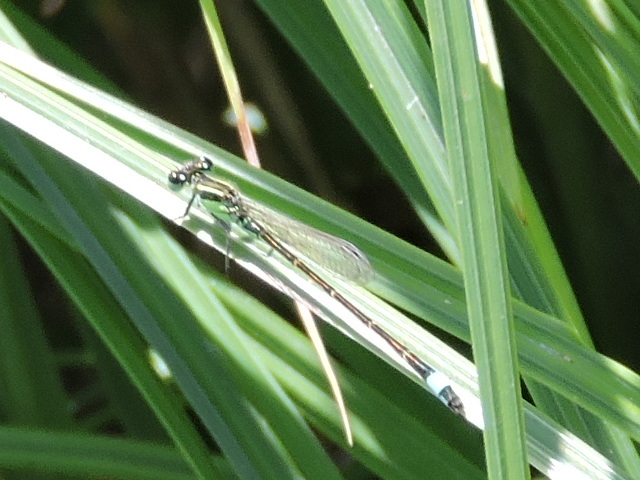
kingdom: Animalia
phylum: Arthropoda
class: Insecta
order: Odonata
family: Coenagrionidae
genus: Ischnura
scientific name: Ischnura ramburii
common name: Rambur's forktail
